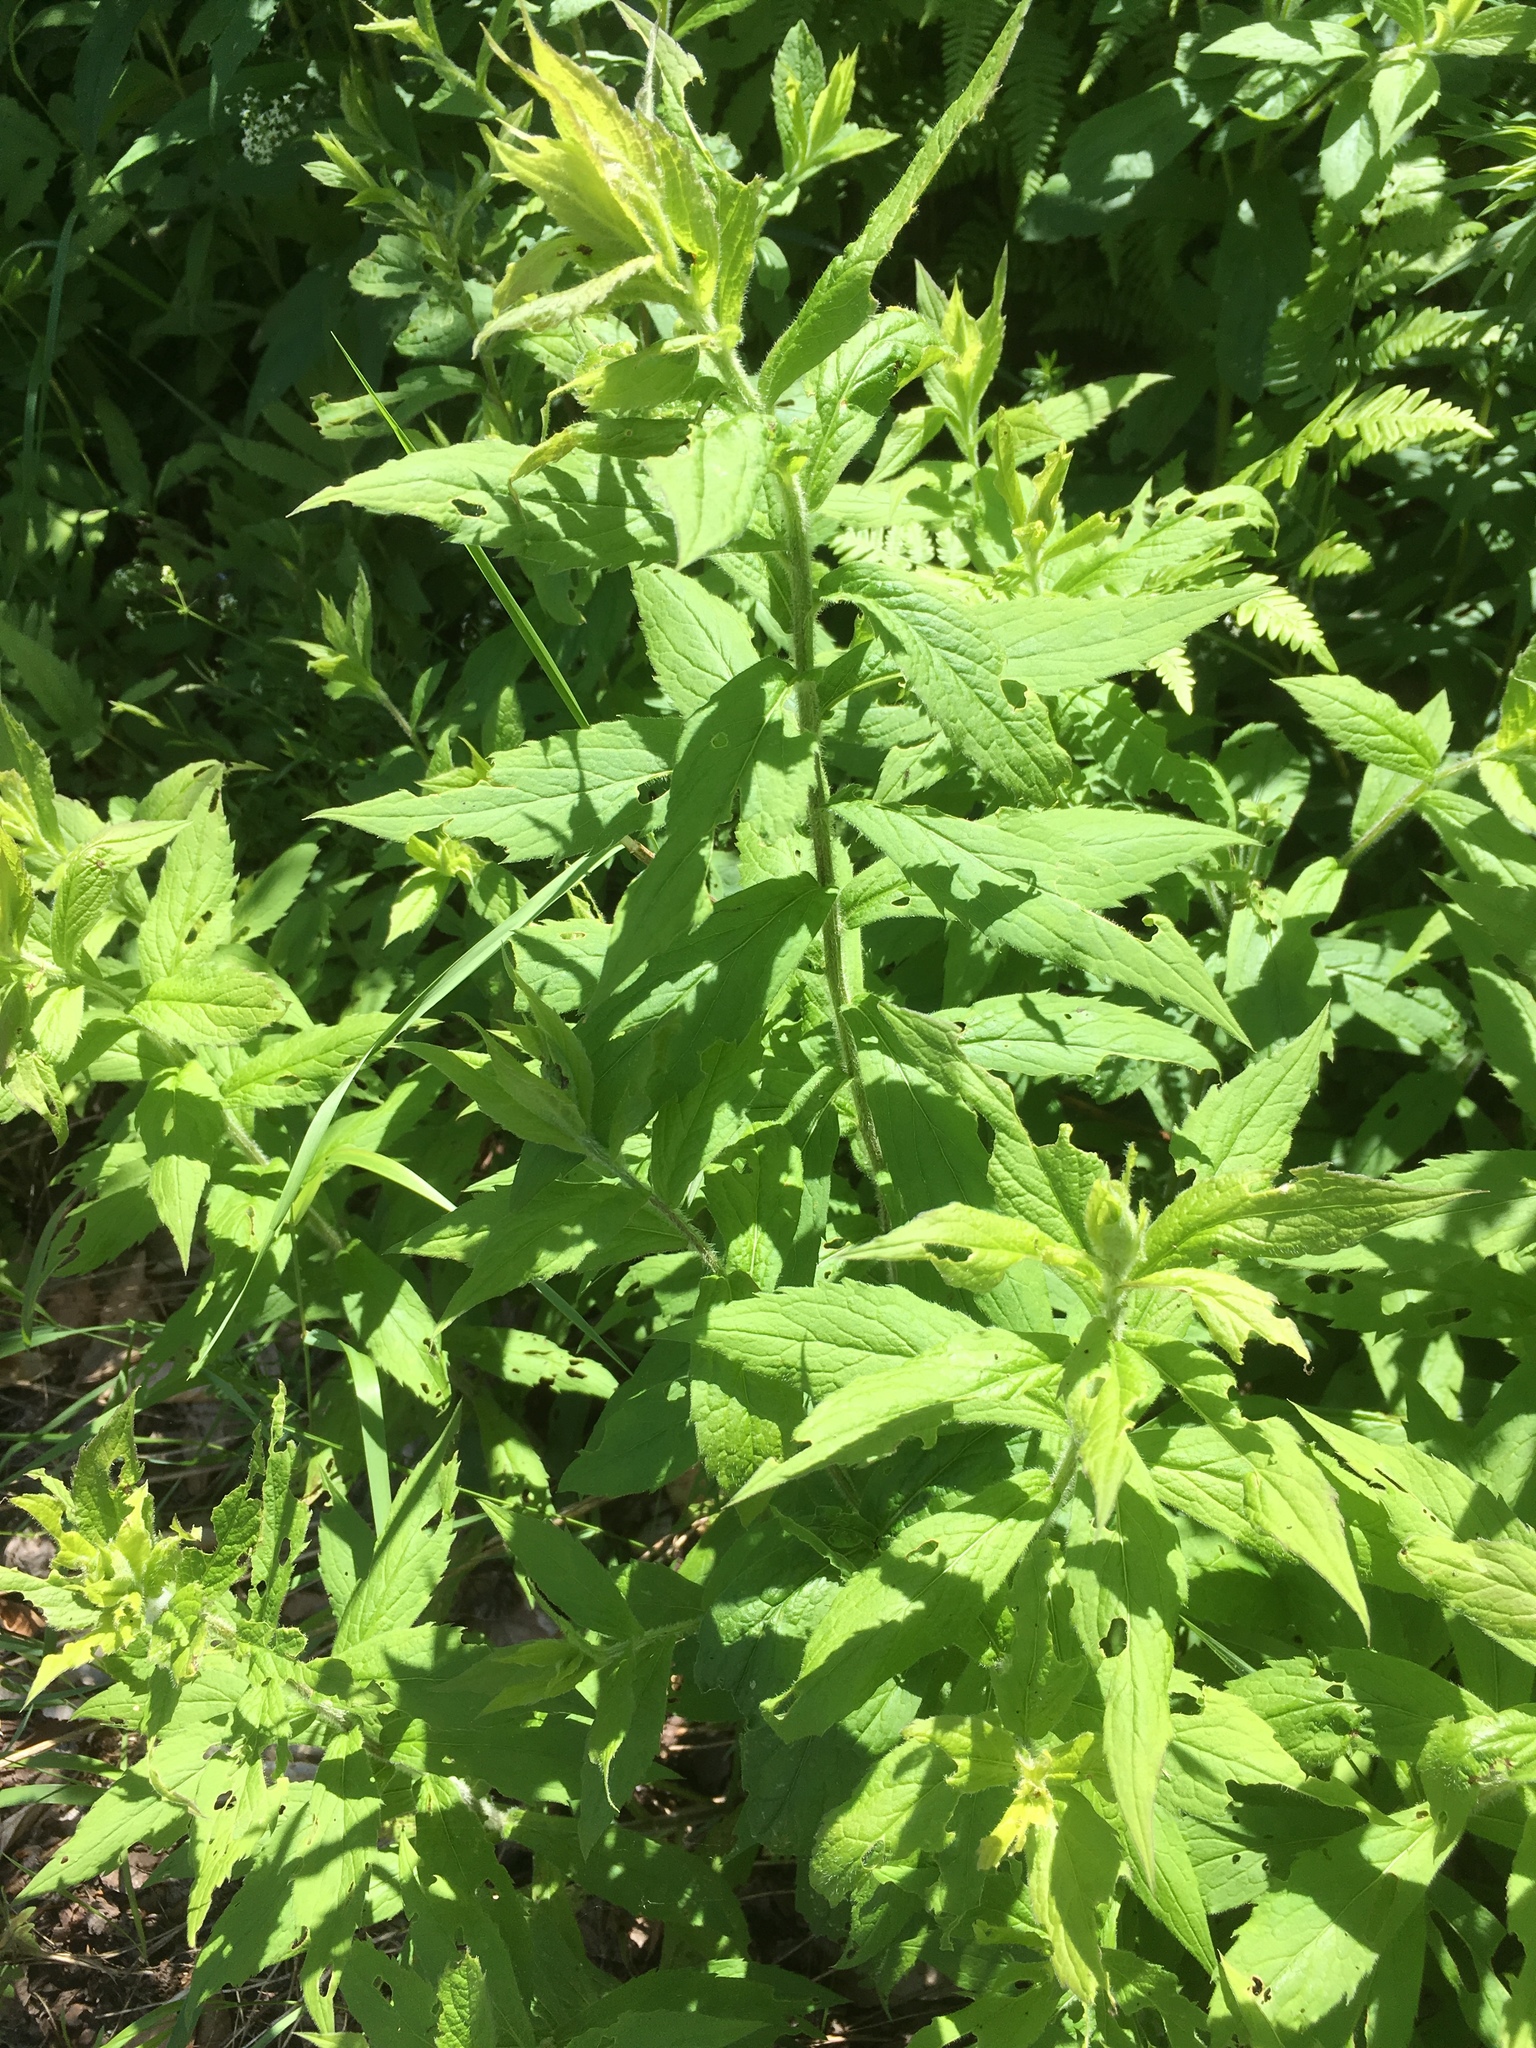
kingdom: Plantae
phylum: Tracheophyta
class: Magnoliopsida
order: Asterales
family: Asteraceae
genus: Solidago
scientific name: Solidago rugosa
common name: Rough-stemmed goldenrod
